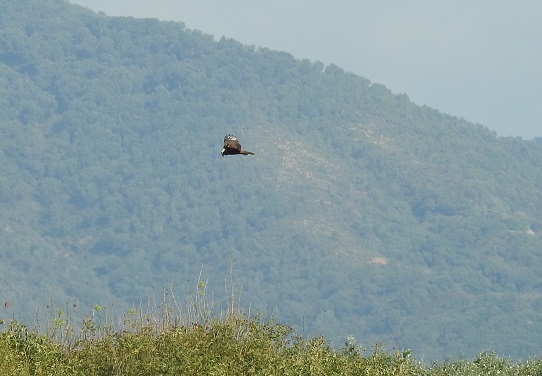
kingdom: Animalia
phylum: Chordata
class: Aves
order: Accipitriformes
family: Accipitridae
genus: Circus
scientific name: Circus aeruginosus
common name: Western marsh harrier
